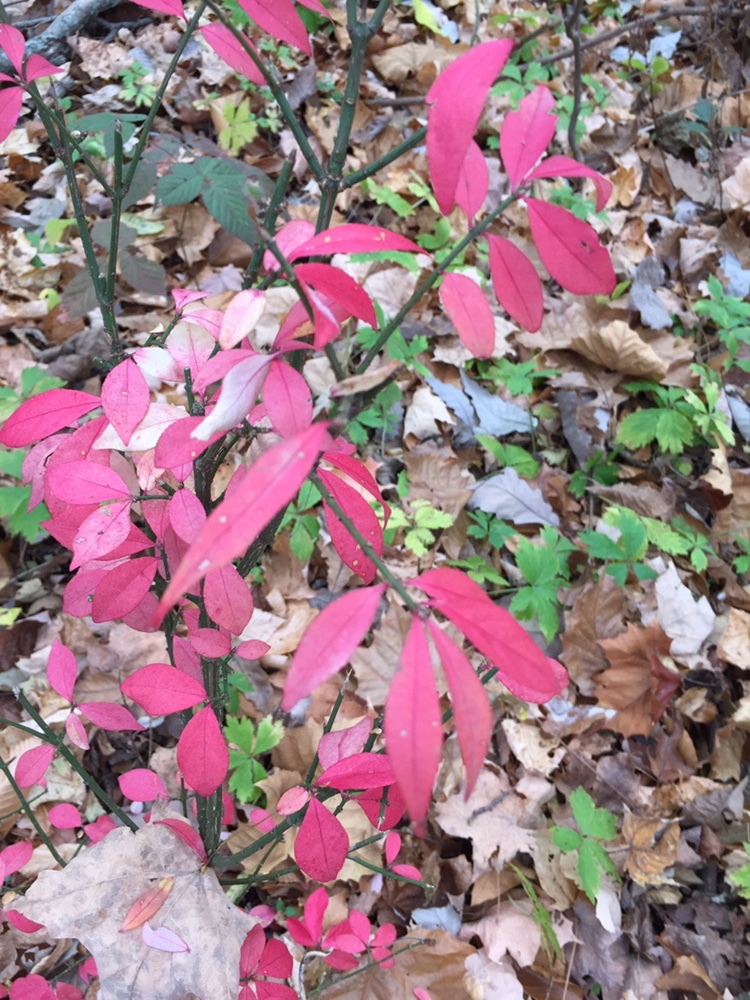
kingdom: Plantae
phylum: Tracheophyta
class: Magnoliopsida
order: Celastrales
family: Celastraceae
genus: Euonymus
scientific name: Euonymus alatus
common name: Winged euonymus
